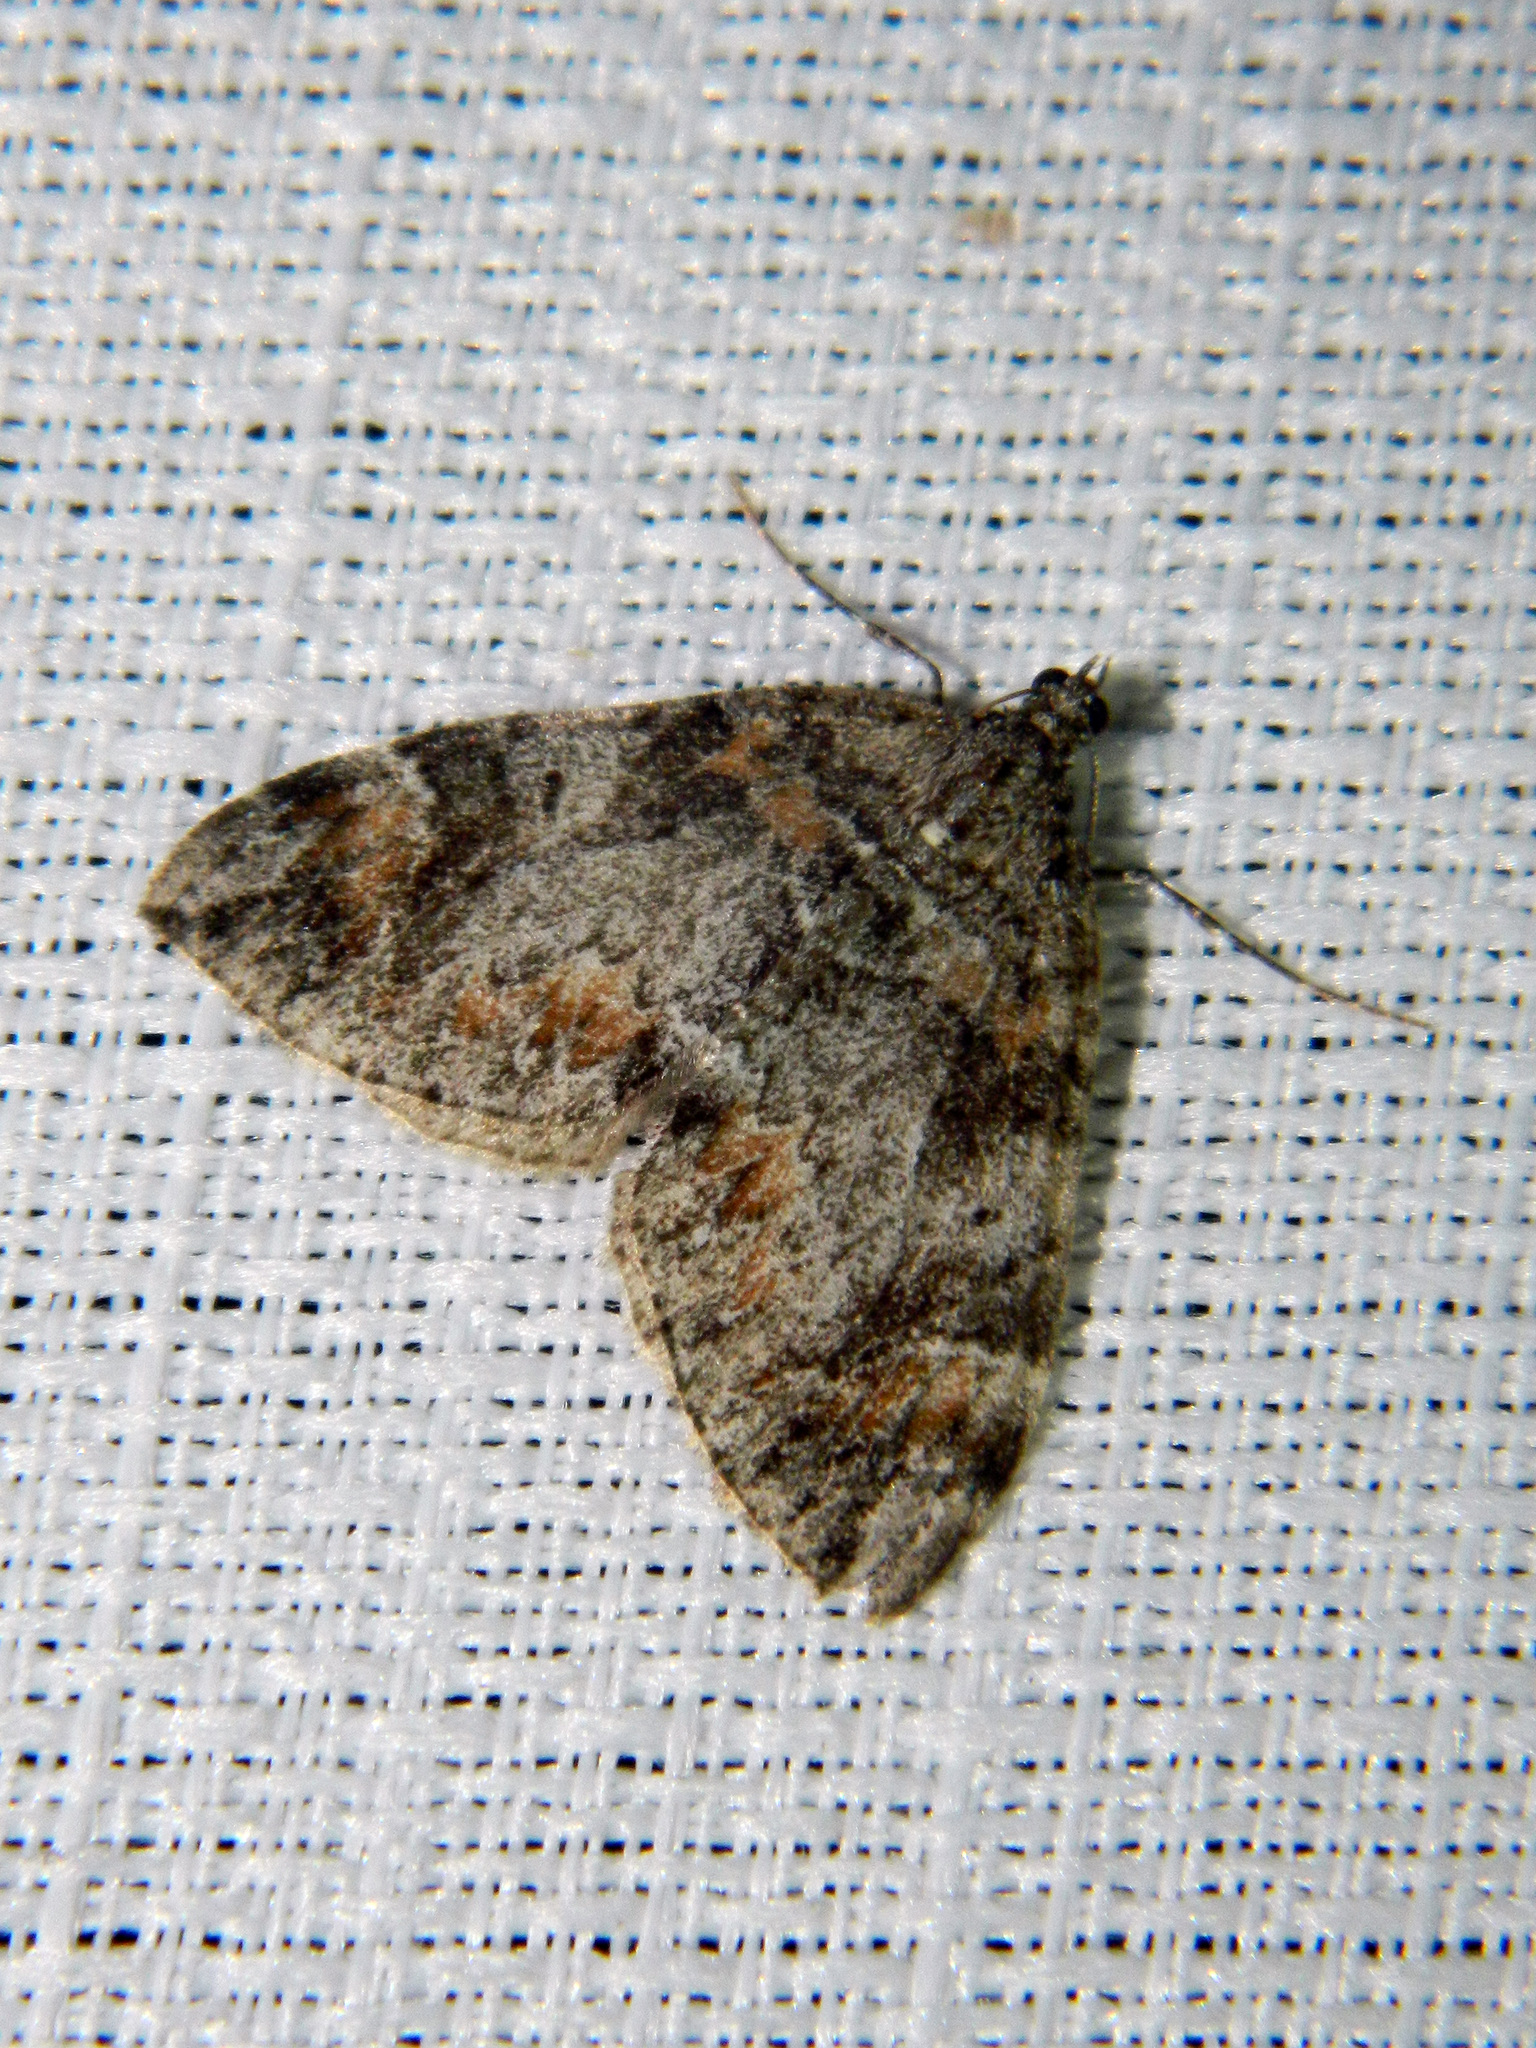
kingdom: Animalia
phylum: Arthropoda
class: Insecta
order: Lepidoptera
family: Geometridae
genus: Dysstroma
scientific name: Dysstroma citrata
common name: Dark marbled carpet
